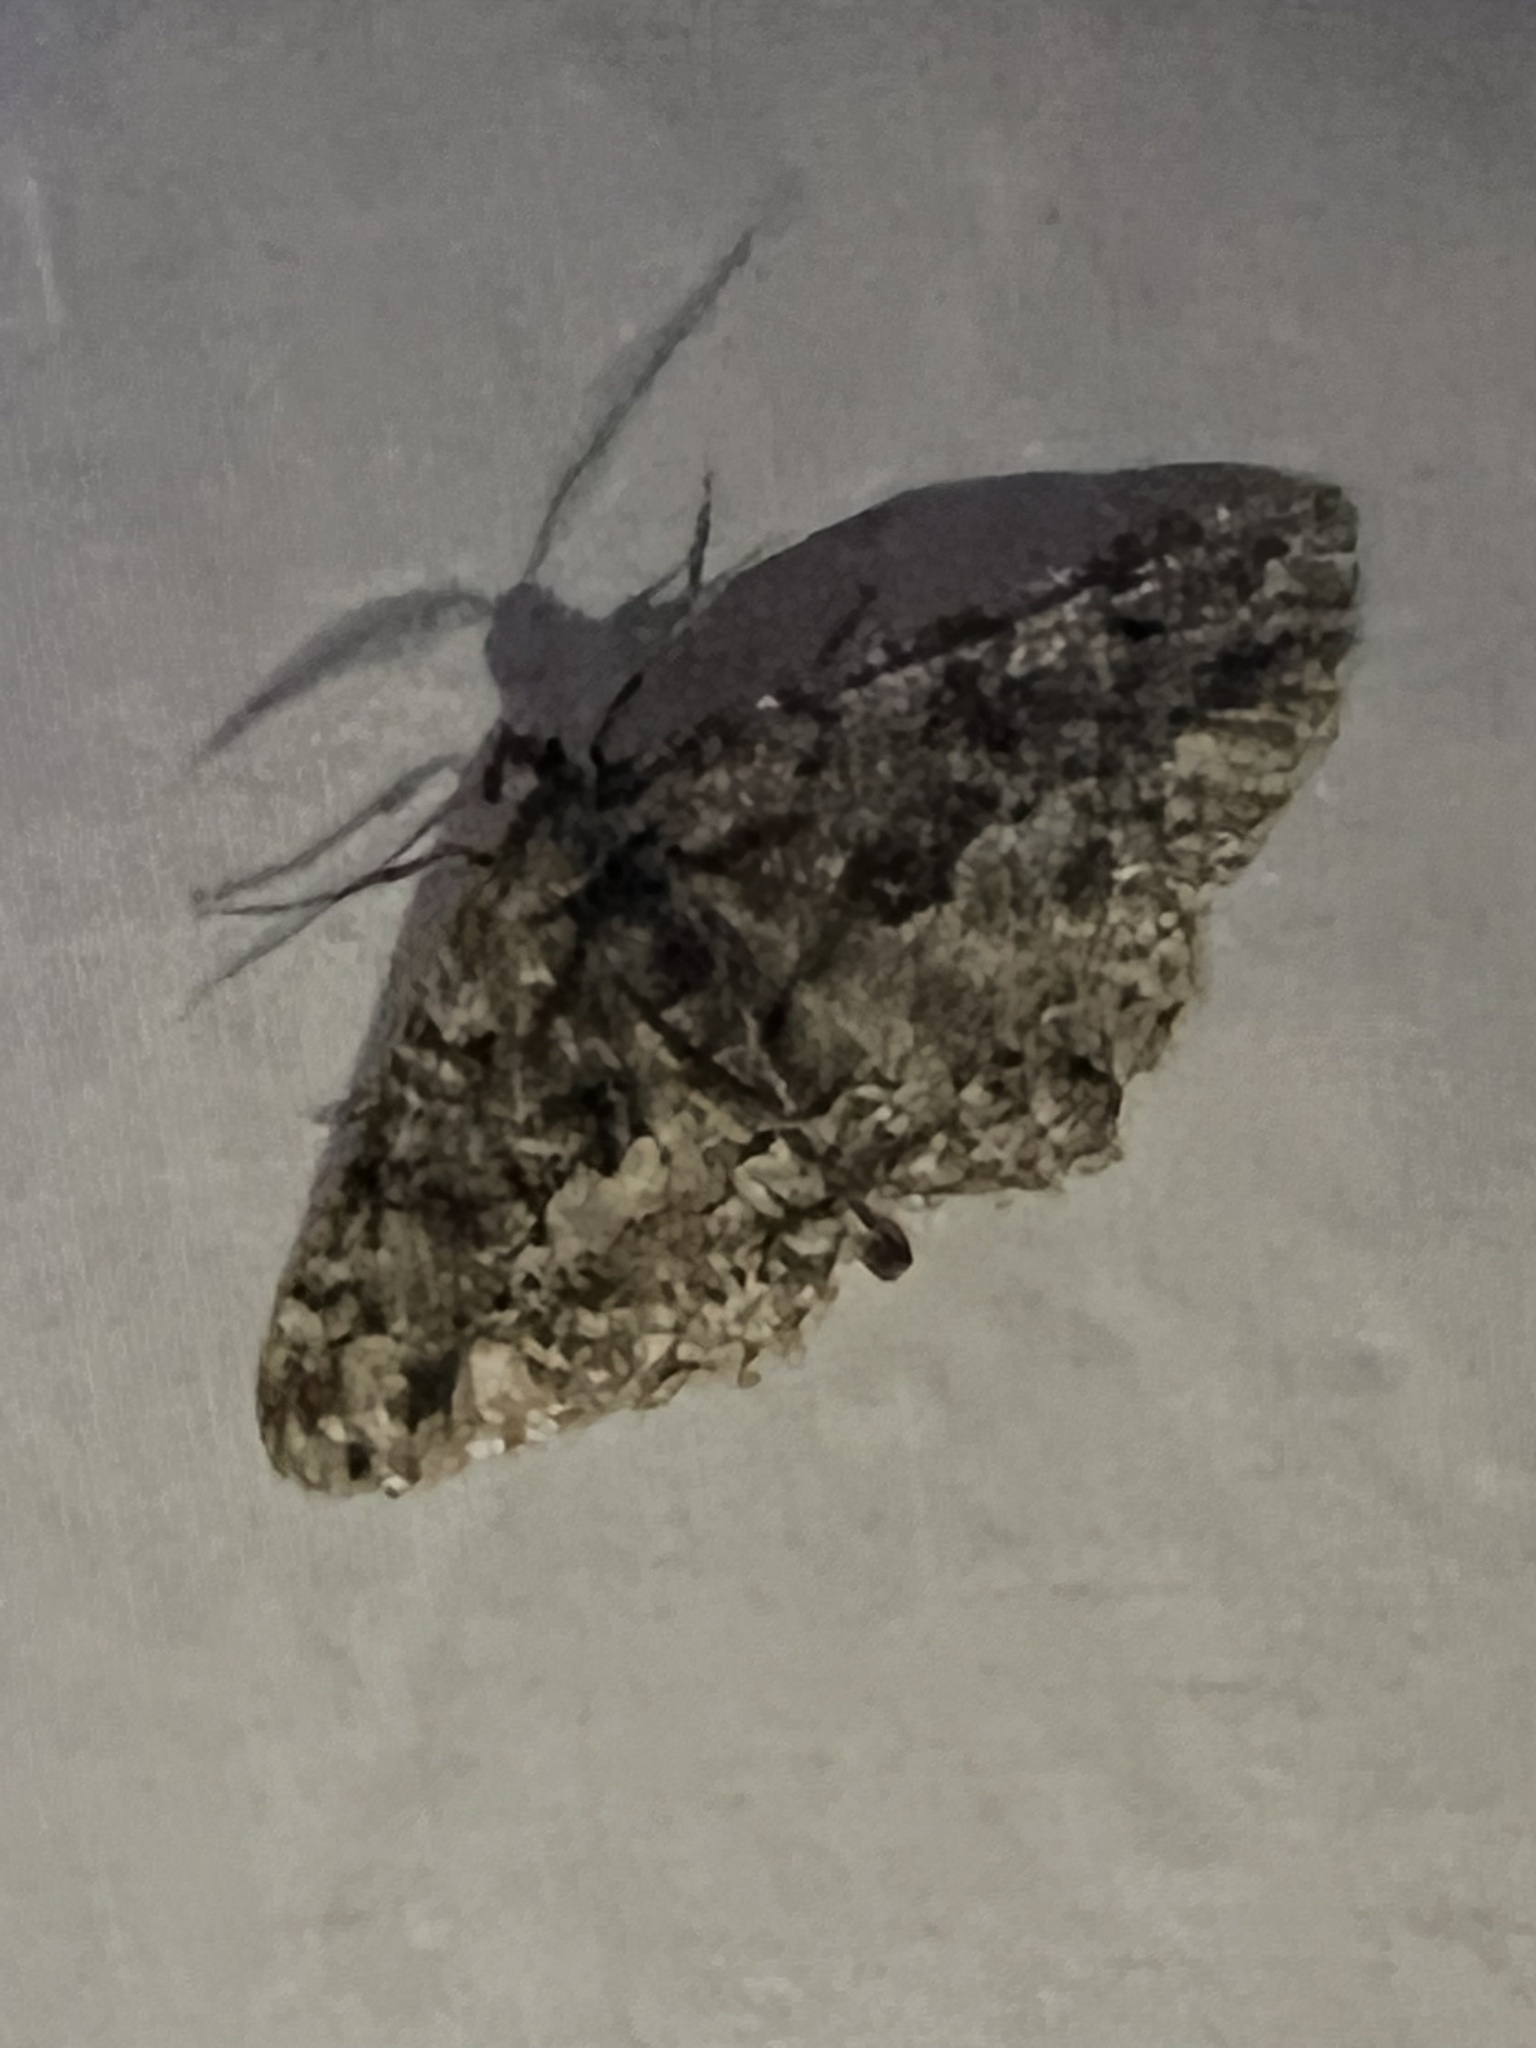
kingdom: Animalia
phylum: Arthropoda
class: Insecta
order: Lepidoptera
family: Geometridae
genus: Peribatodes
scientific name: Peribatodes ilicaria
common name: Lydd beauty
